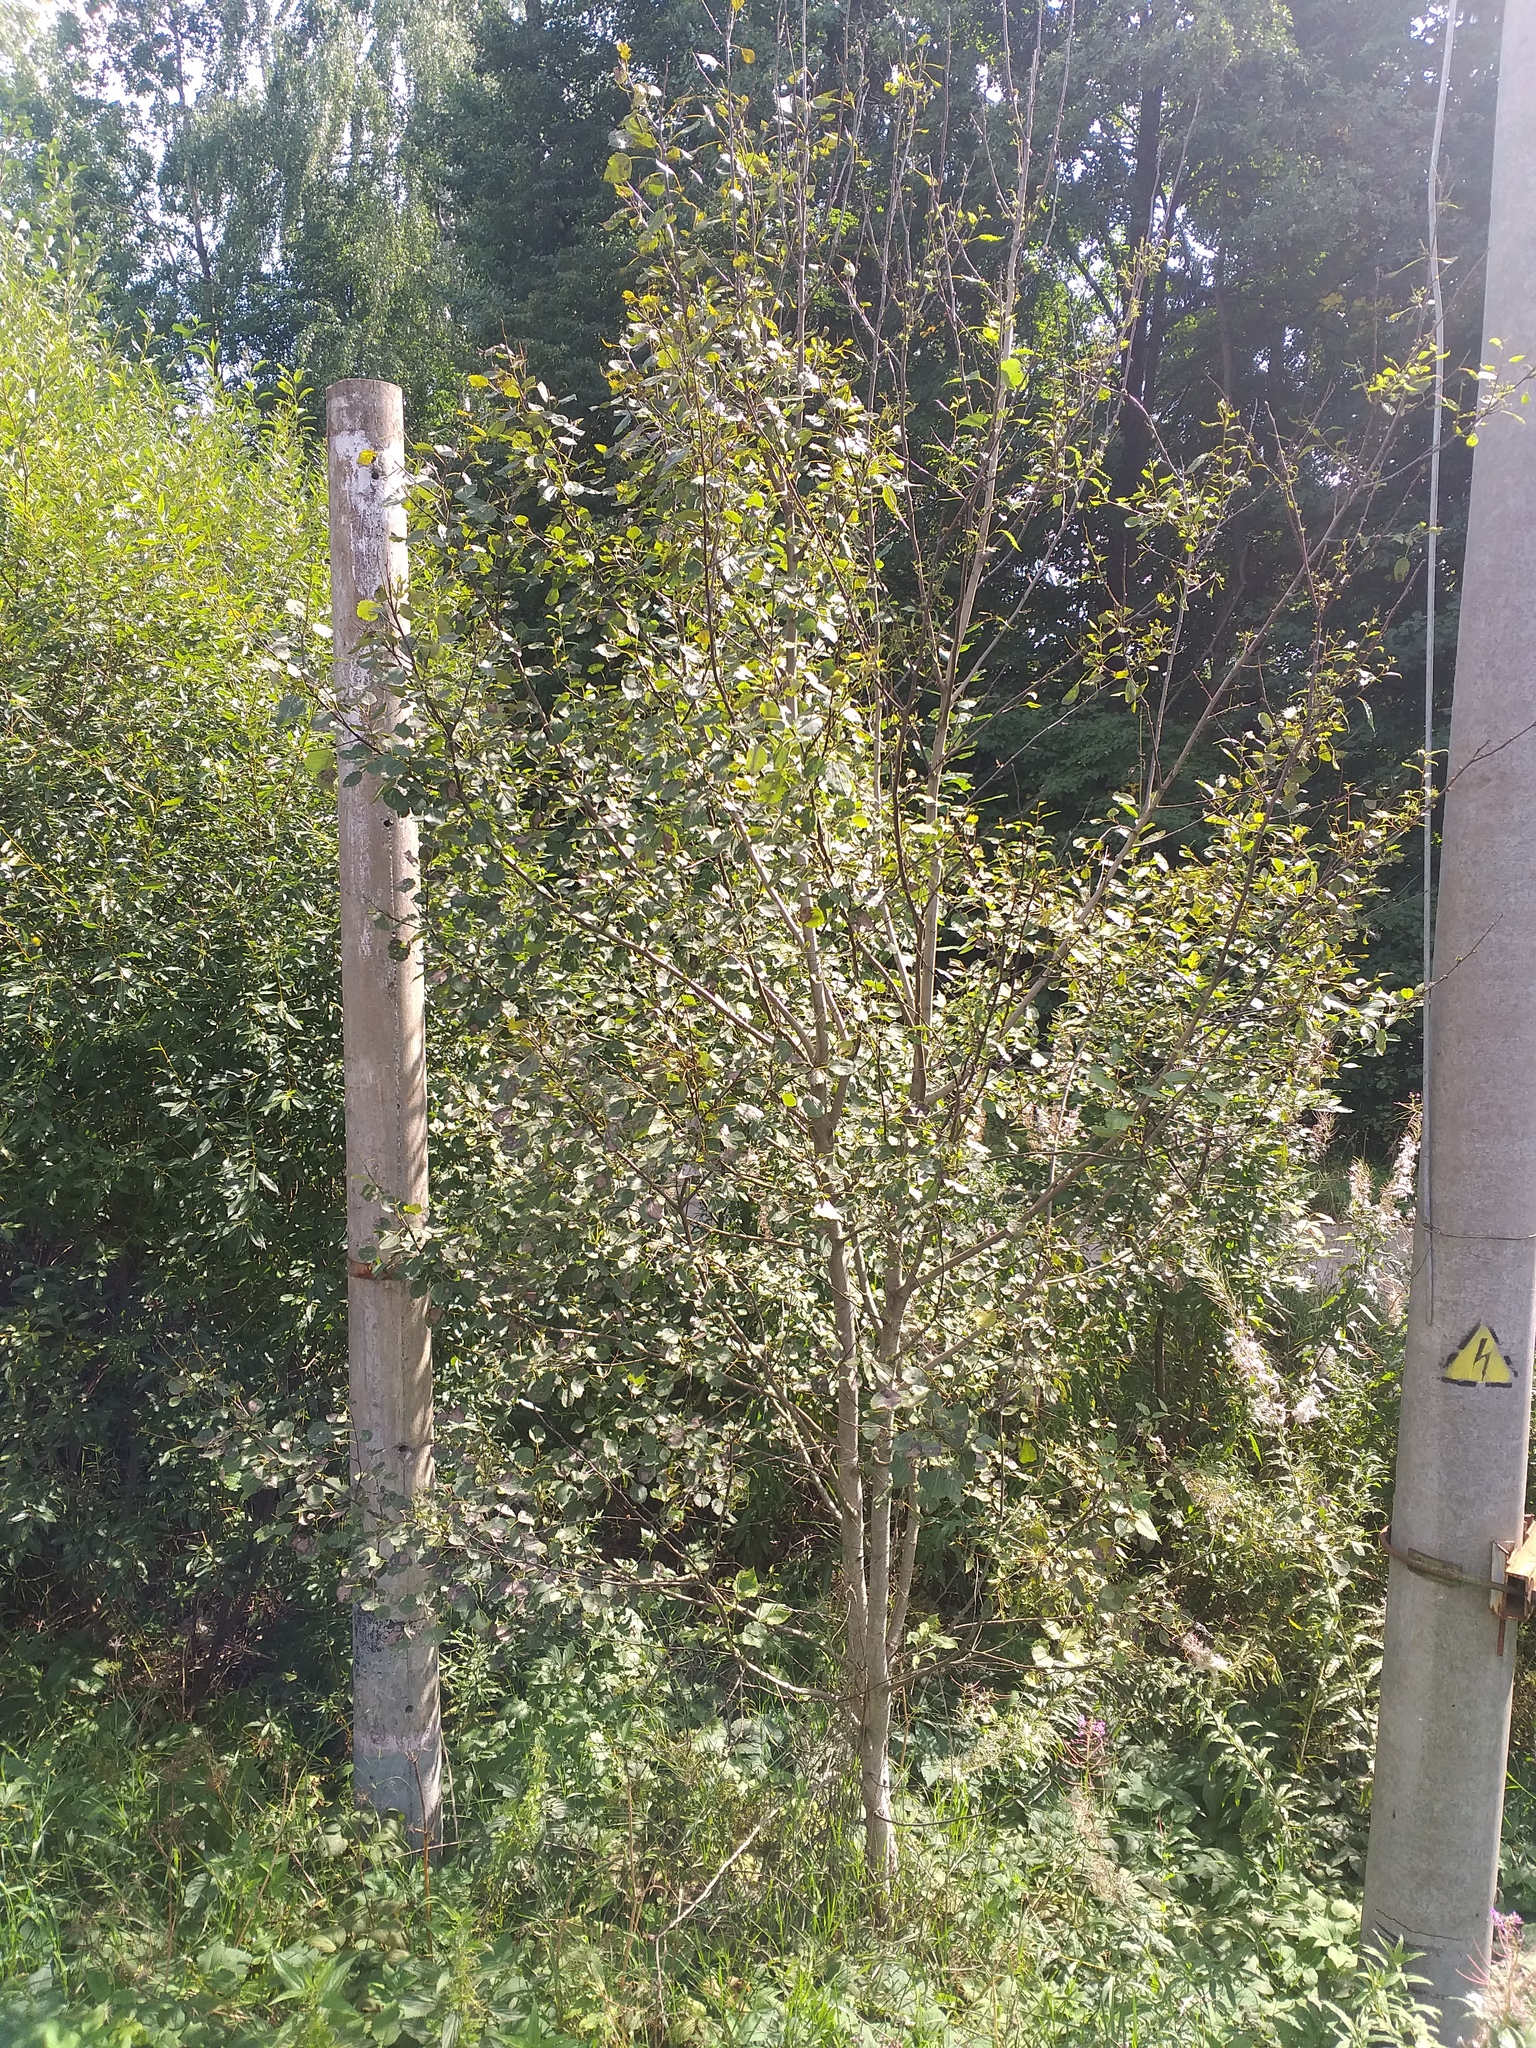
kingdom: Plantae
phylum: Tracheophyta
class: Magnoliopsida
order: Malpighiales
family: Salicaceae
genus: Populus
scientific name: Populus tremula
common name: European aspen
